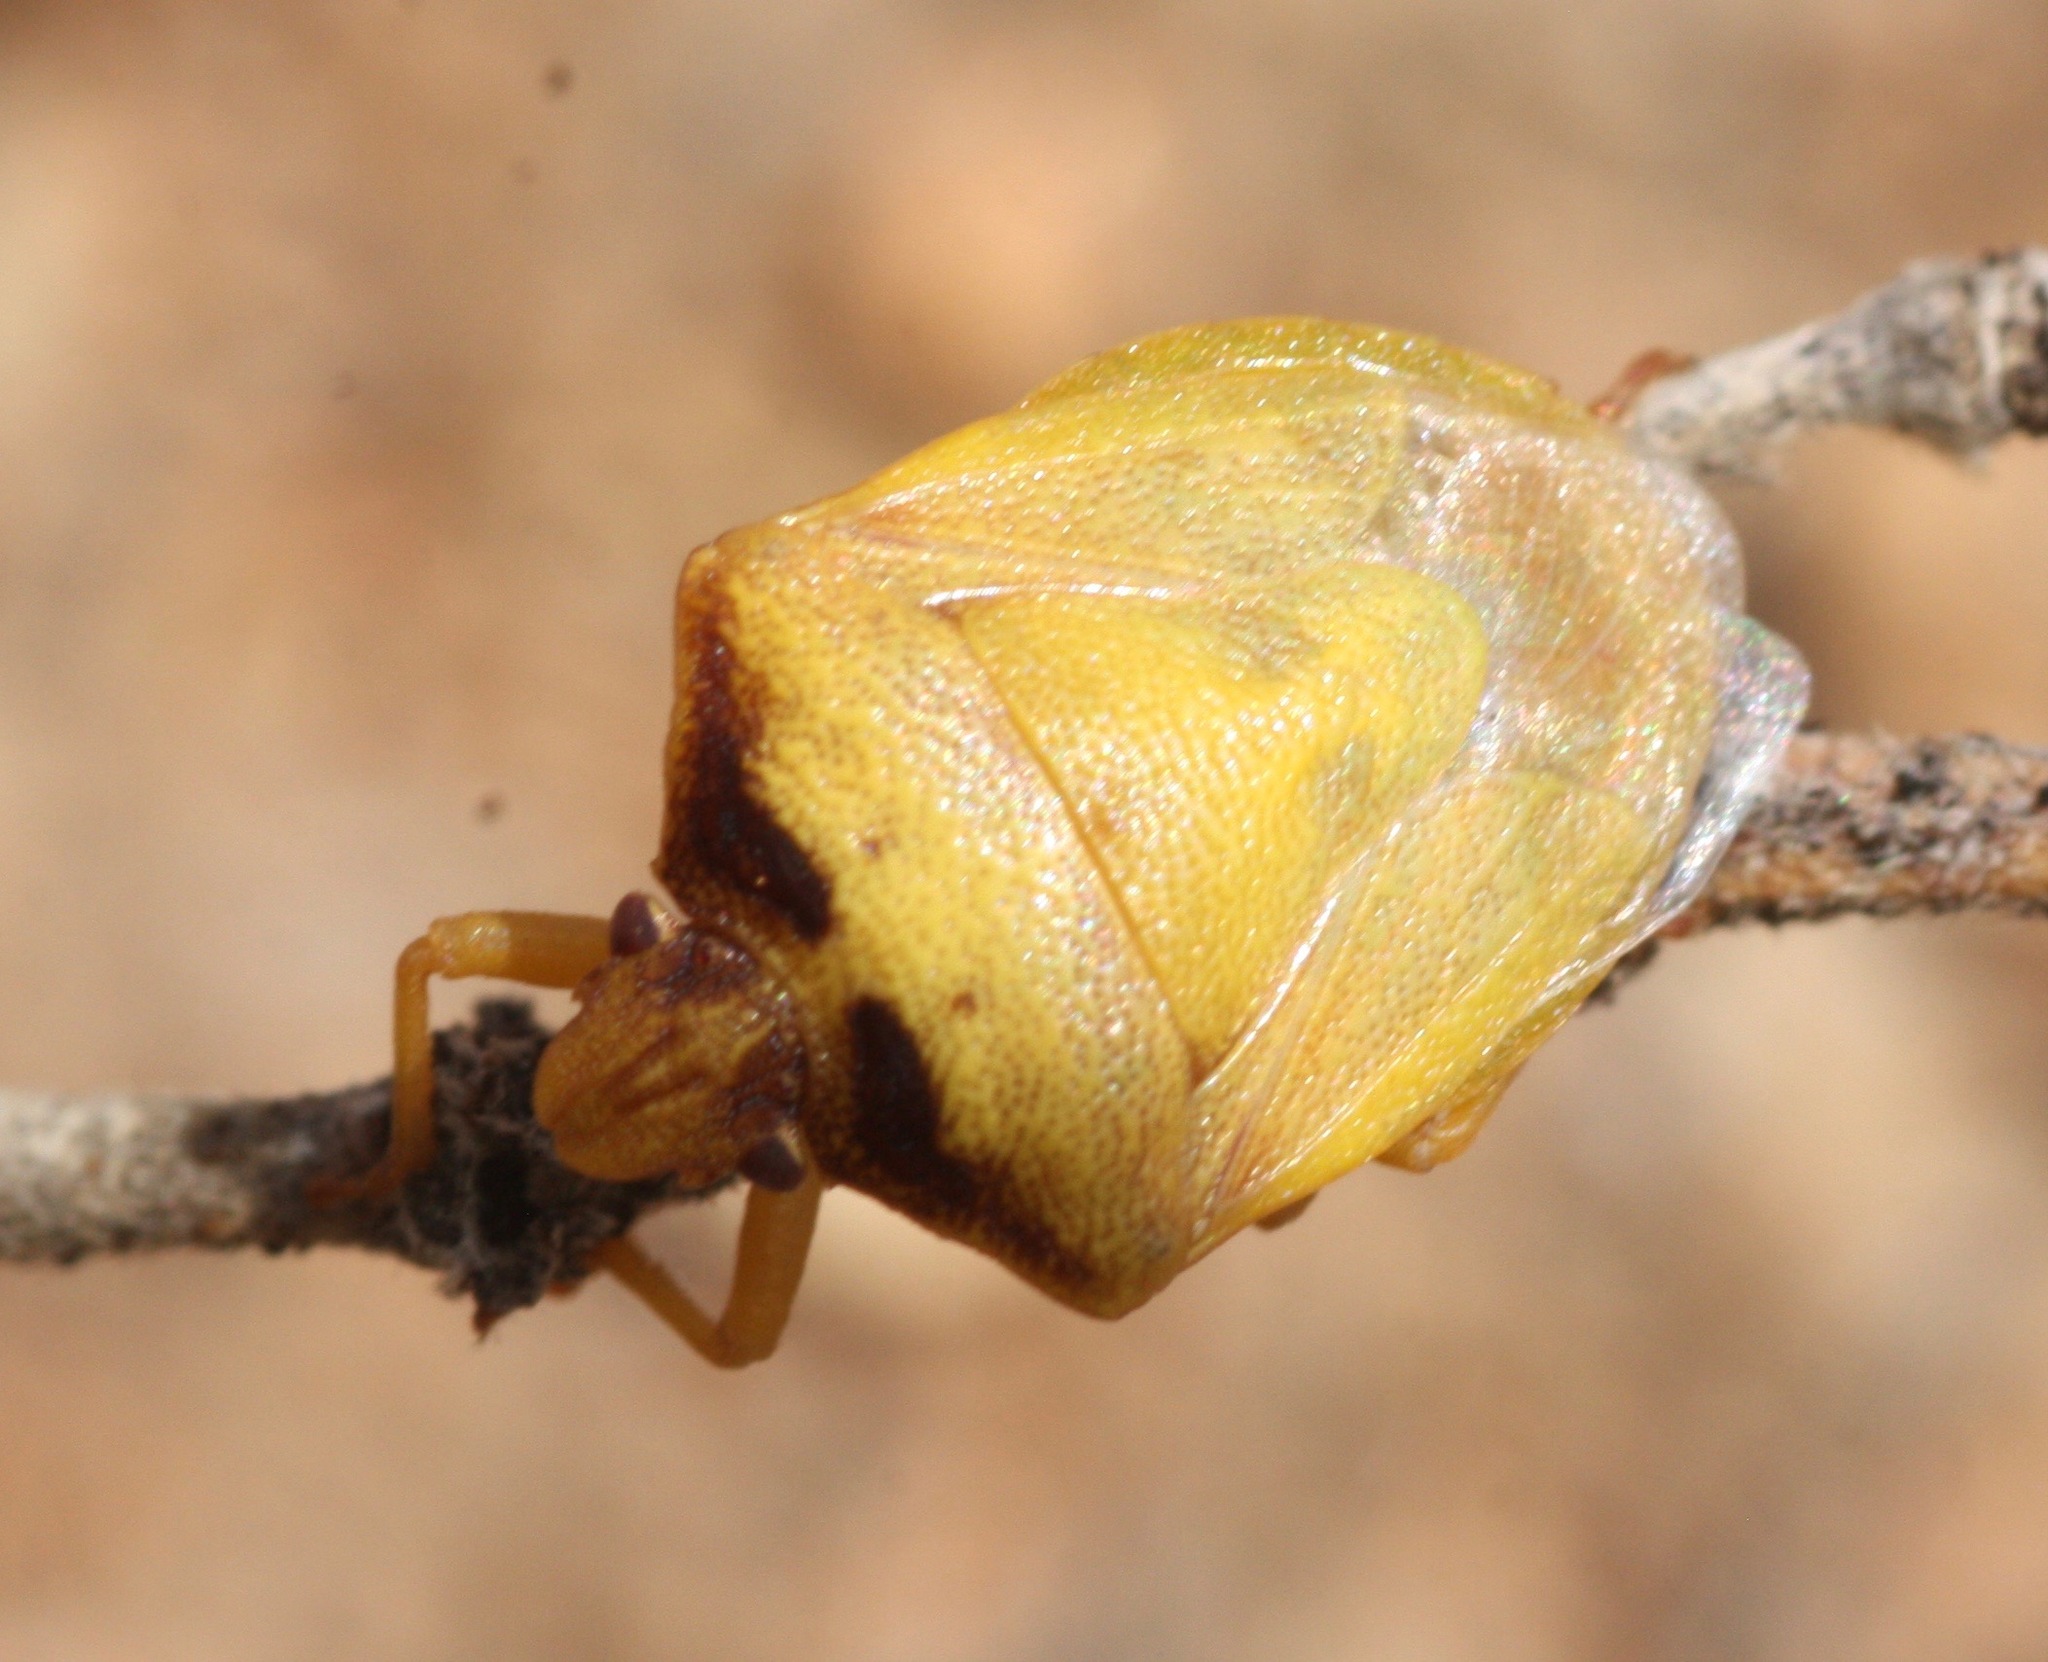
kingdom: Animalia
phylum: Arthropoda
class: Insecta
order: Hemiptera
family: Pentatomidae
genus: Dendrocoris
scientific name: Dendrocoris contaminatus
